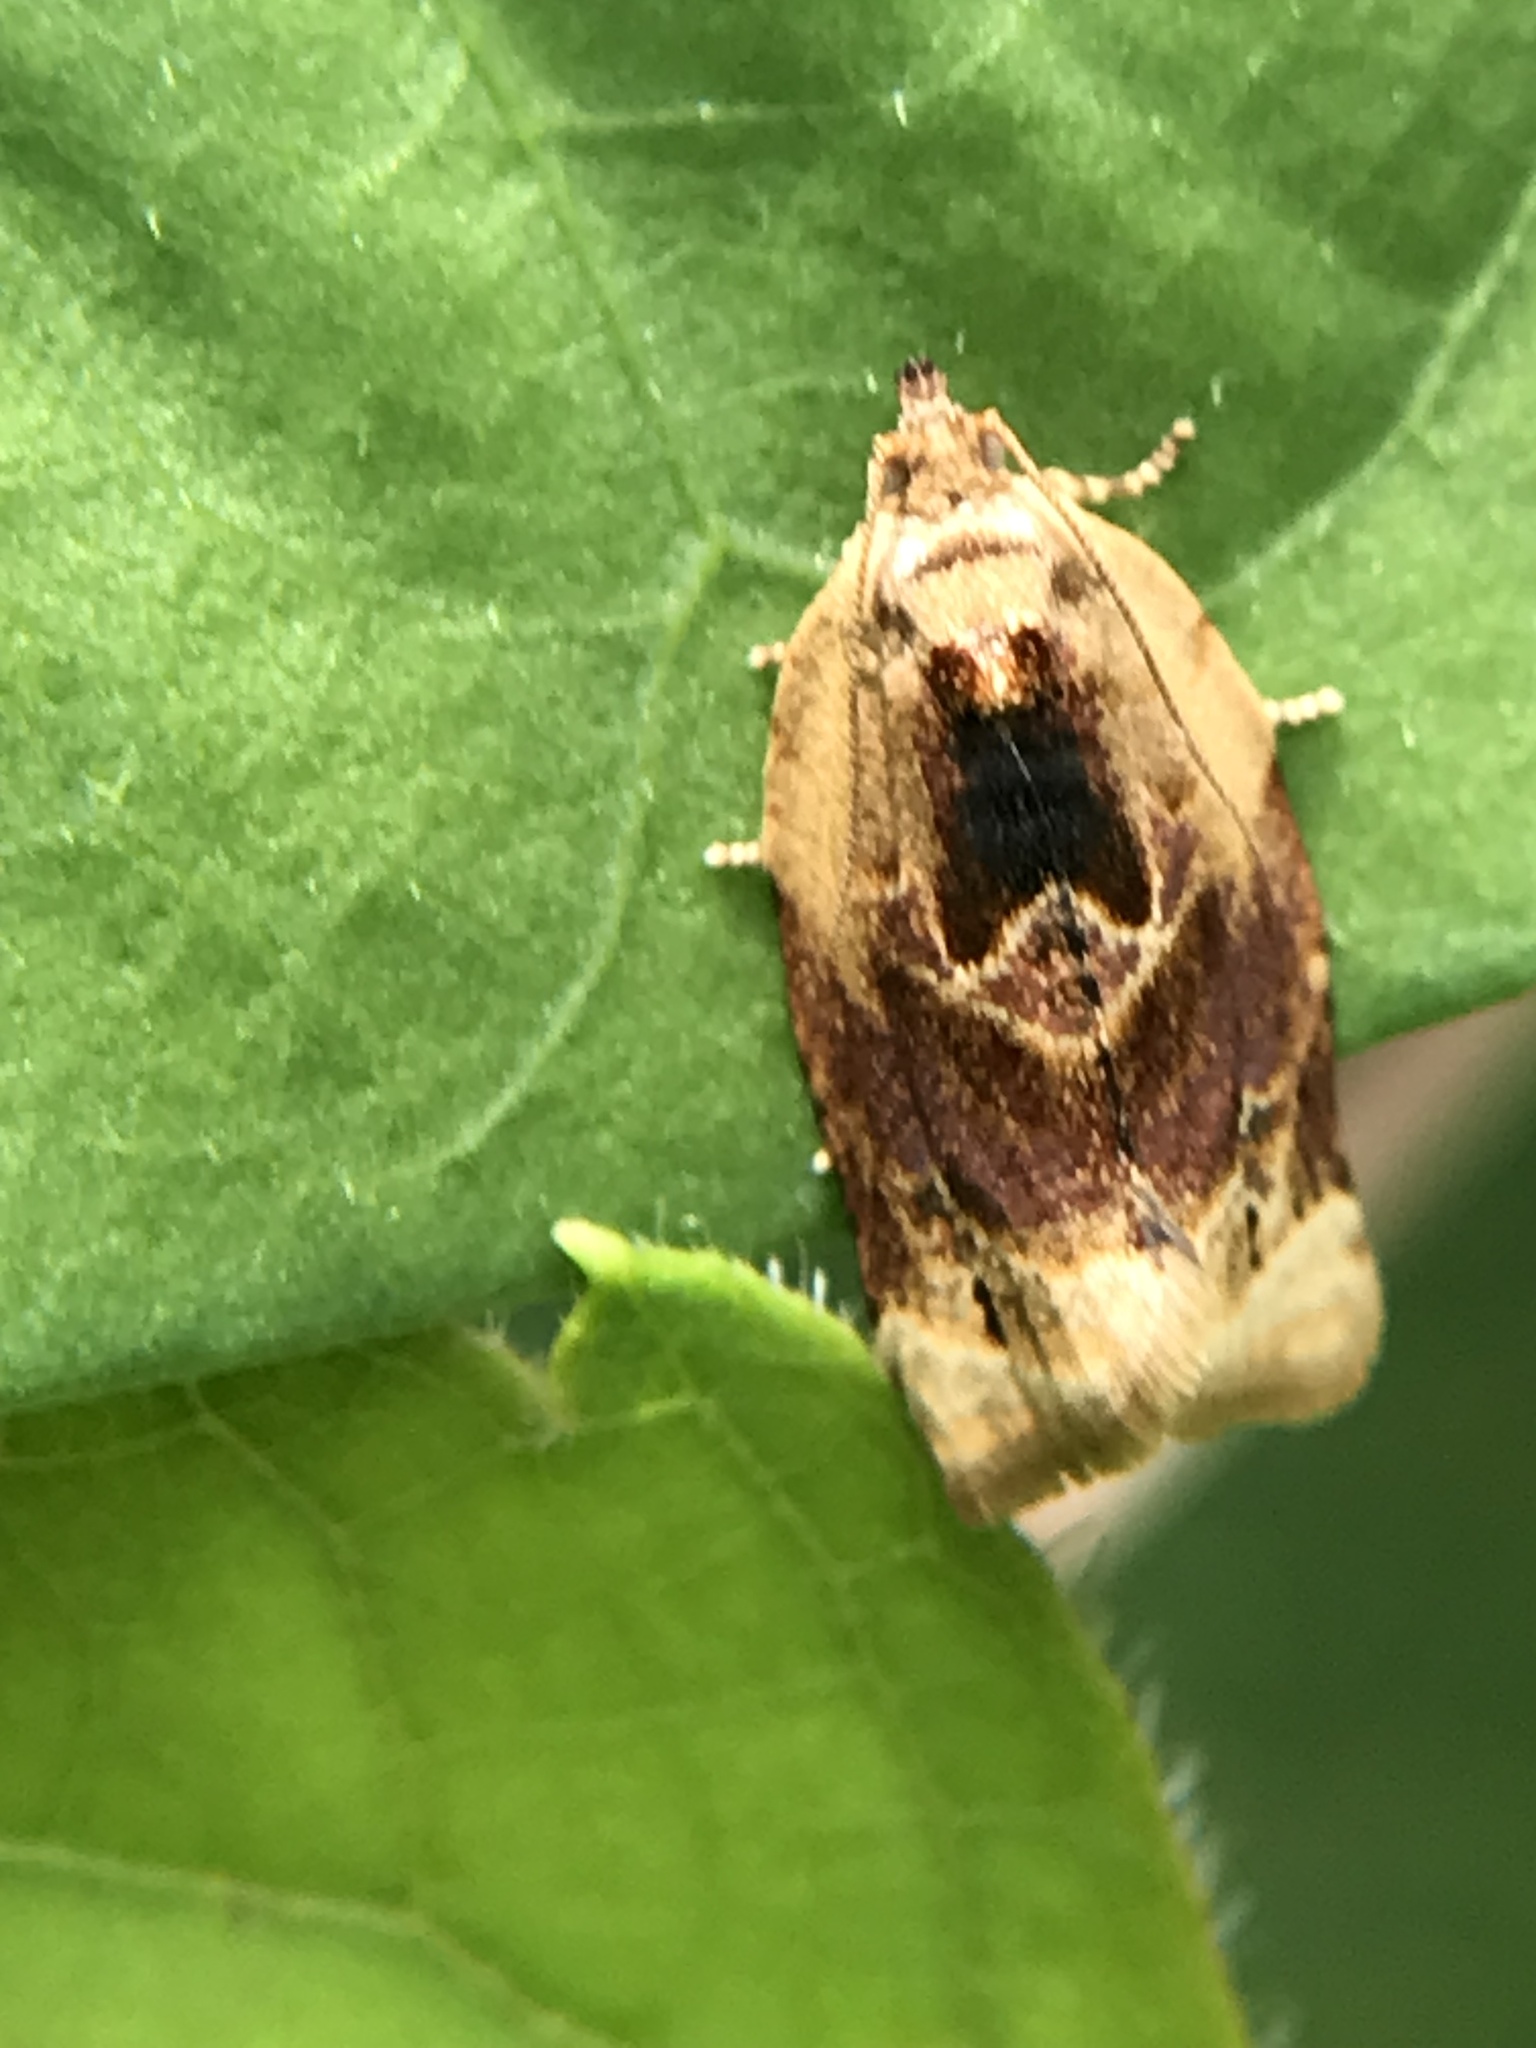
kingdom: Animalia
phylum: Arthropoda
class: Insecta
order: Lepidoptera
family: Tortricidae
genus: Argyrotaenia
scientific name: Argyrotaenia velutinana
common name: Red-banded leafroller moth
